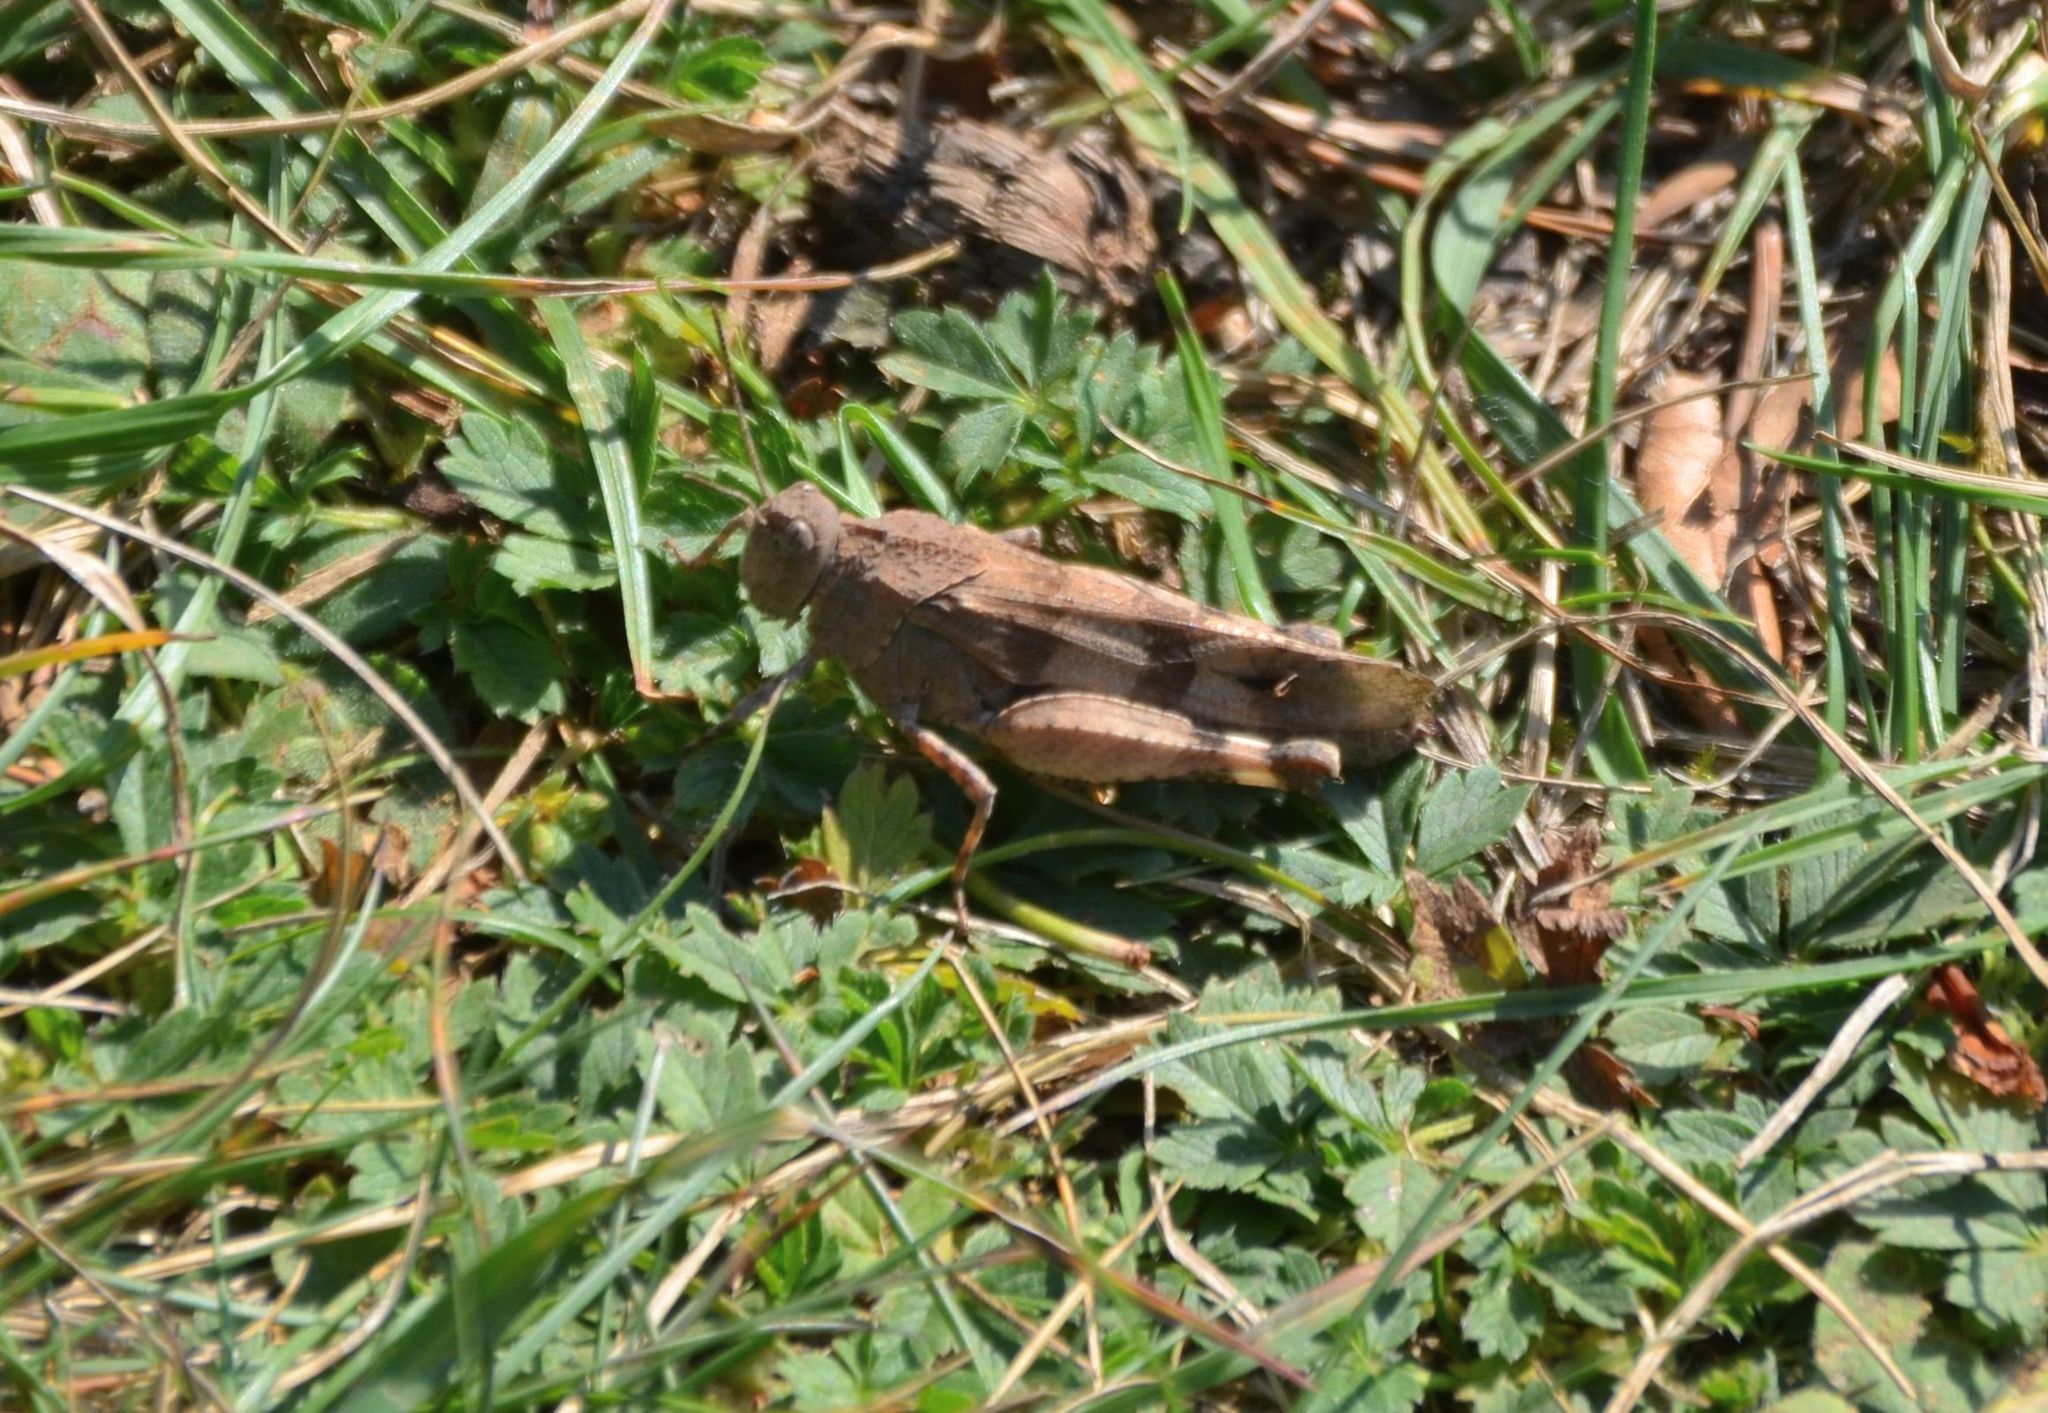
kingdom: Animalia
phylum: Arthropoda
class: Insecta
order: Orthoptera
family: Acrididae
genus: Oedipoda
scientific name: Oedipoda caerulescens
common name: Blue-winged grasshopper
